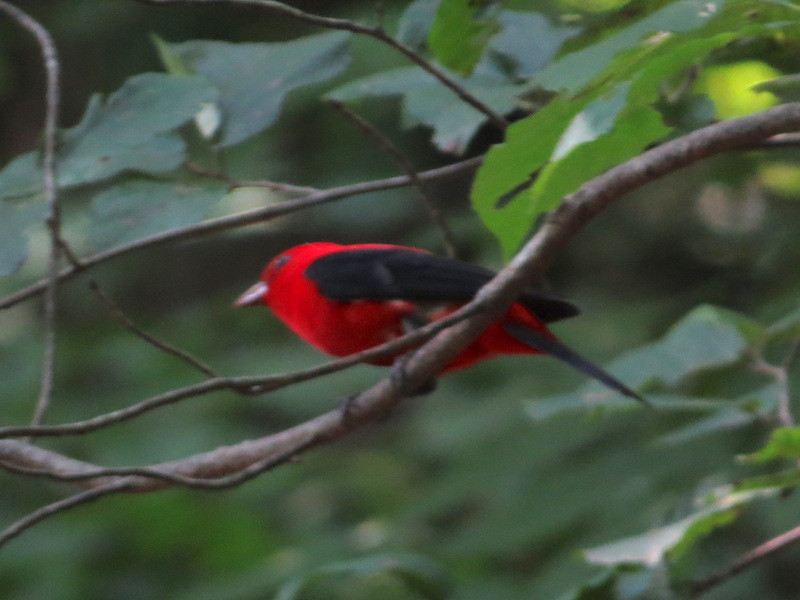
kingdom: Animalia
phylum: Chordata
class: Aves
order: Passeriformes
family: Cardinalidae
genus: Piranga
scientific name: Piranga olivacea
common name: Scarlet tanager
